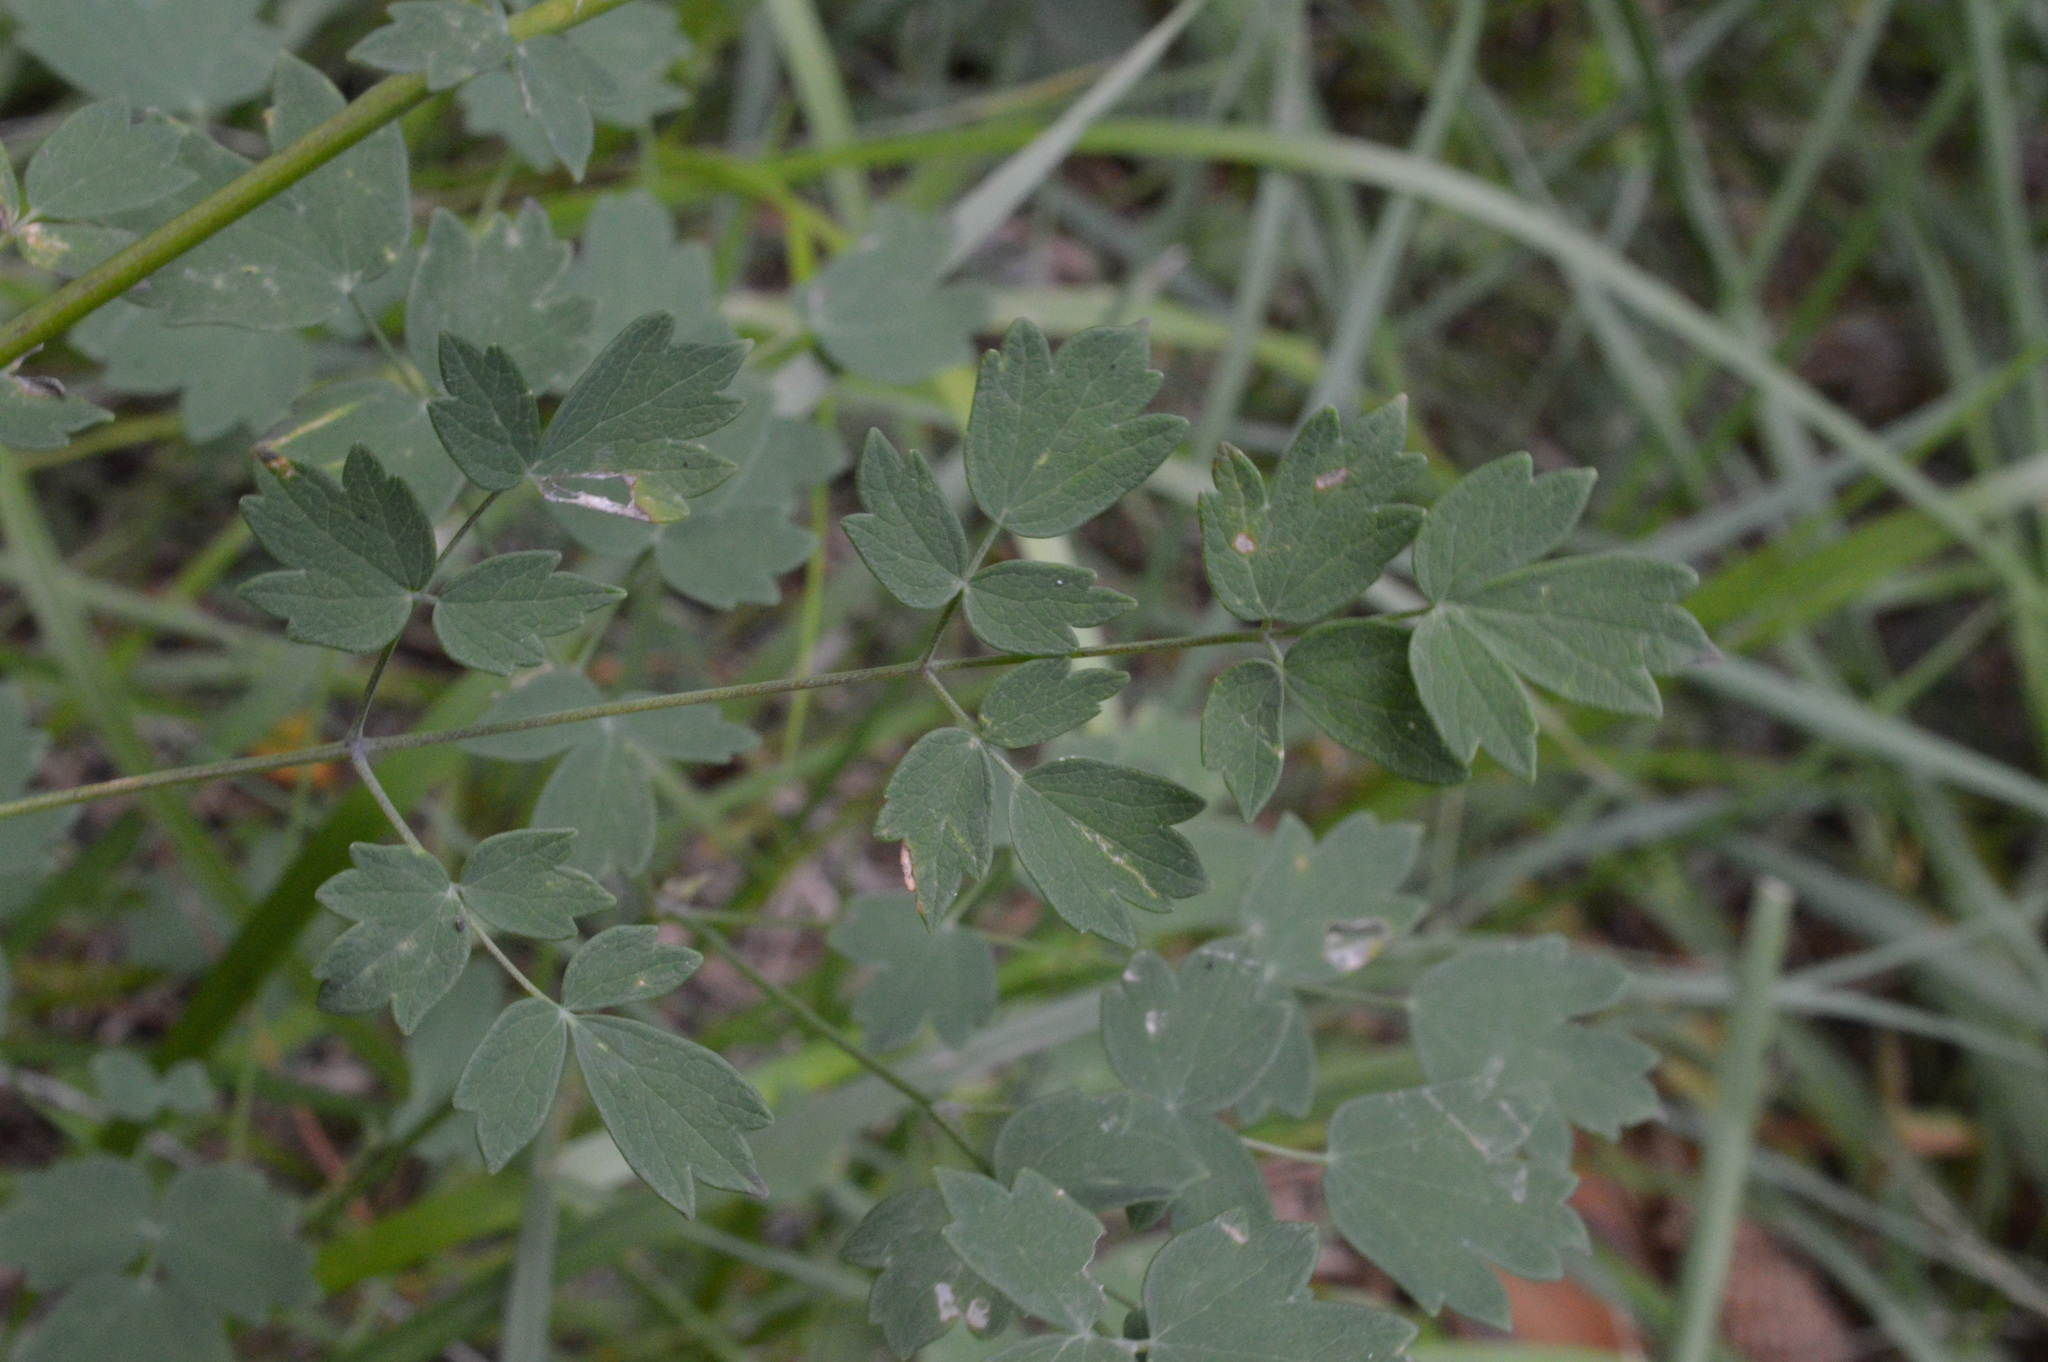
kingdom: Plantae
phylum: Tracheophyta
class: Magnoliopsida
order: Ranunculales
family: Ranunculaceae
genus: Thalictrum
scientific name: Thalictrum minus
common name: Lesser meadow-rue
